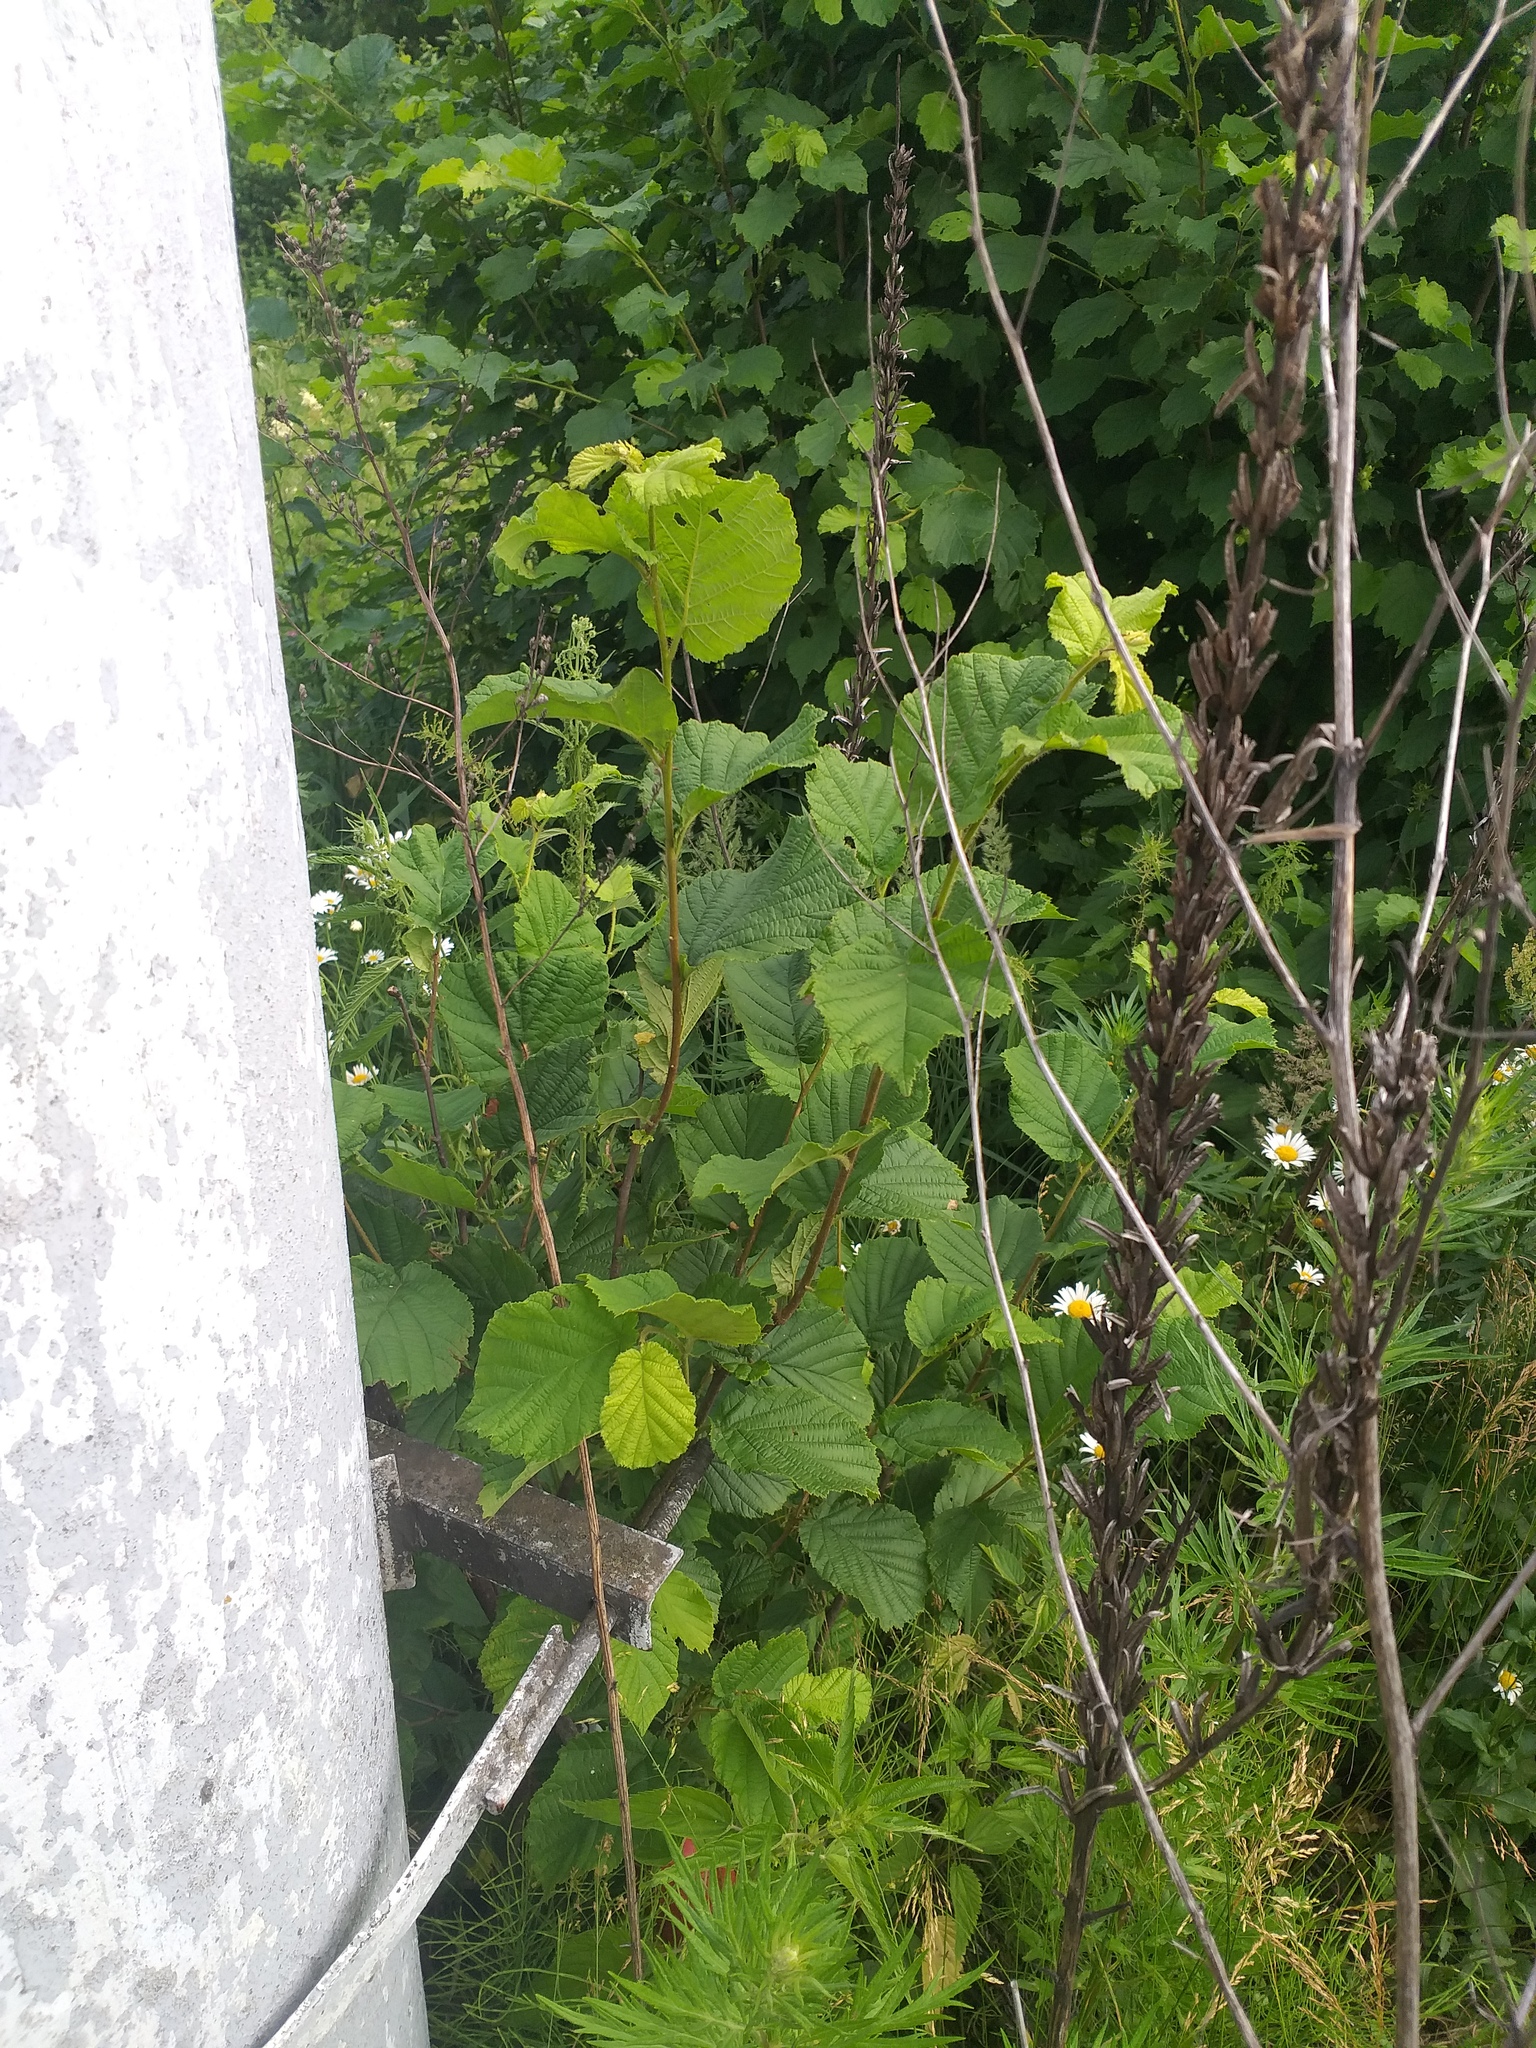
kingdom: Plantae
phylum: Tracheophyta
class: Magnoliopsida
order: Fagales
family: Betulaceae
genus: Corylus
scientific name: Corylus avellana
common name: European hazel
